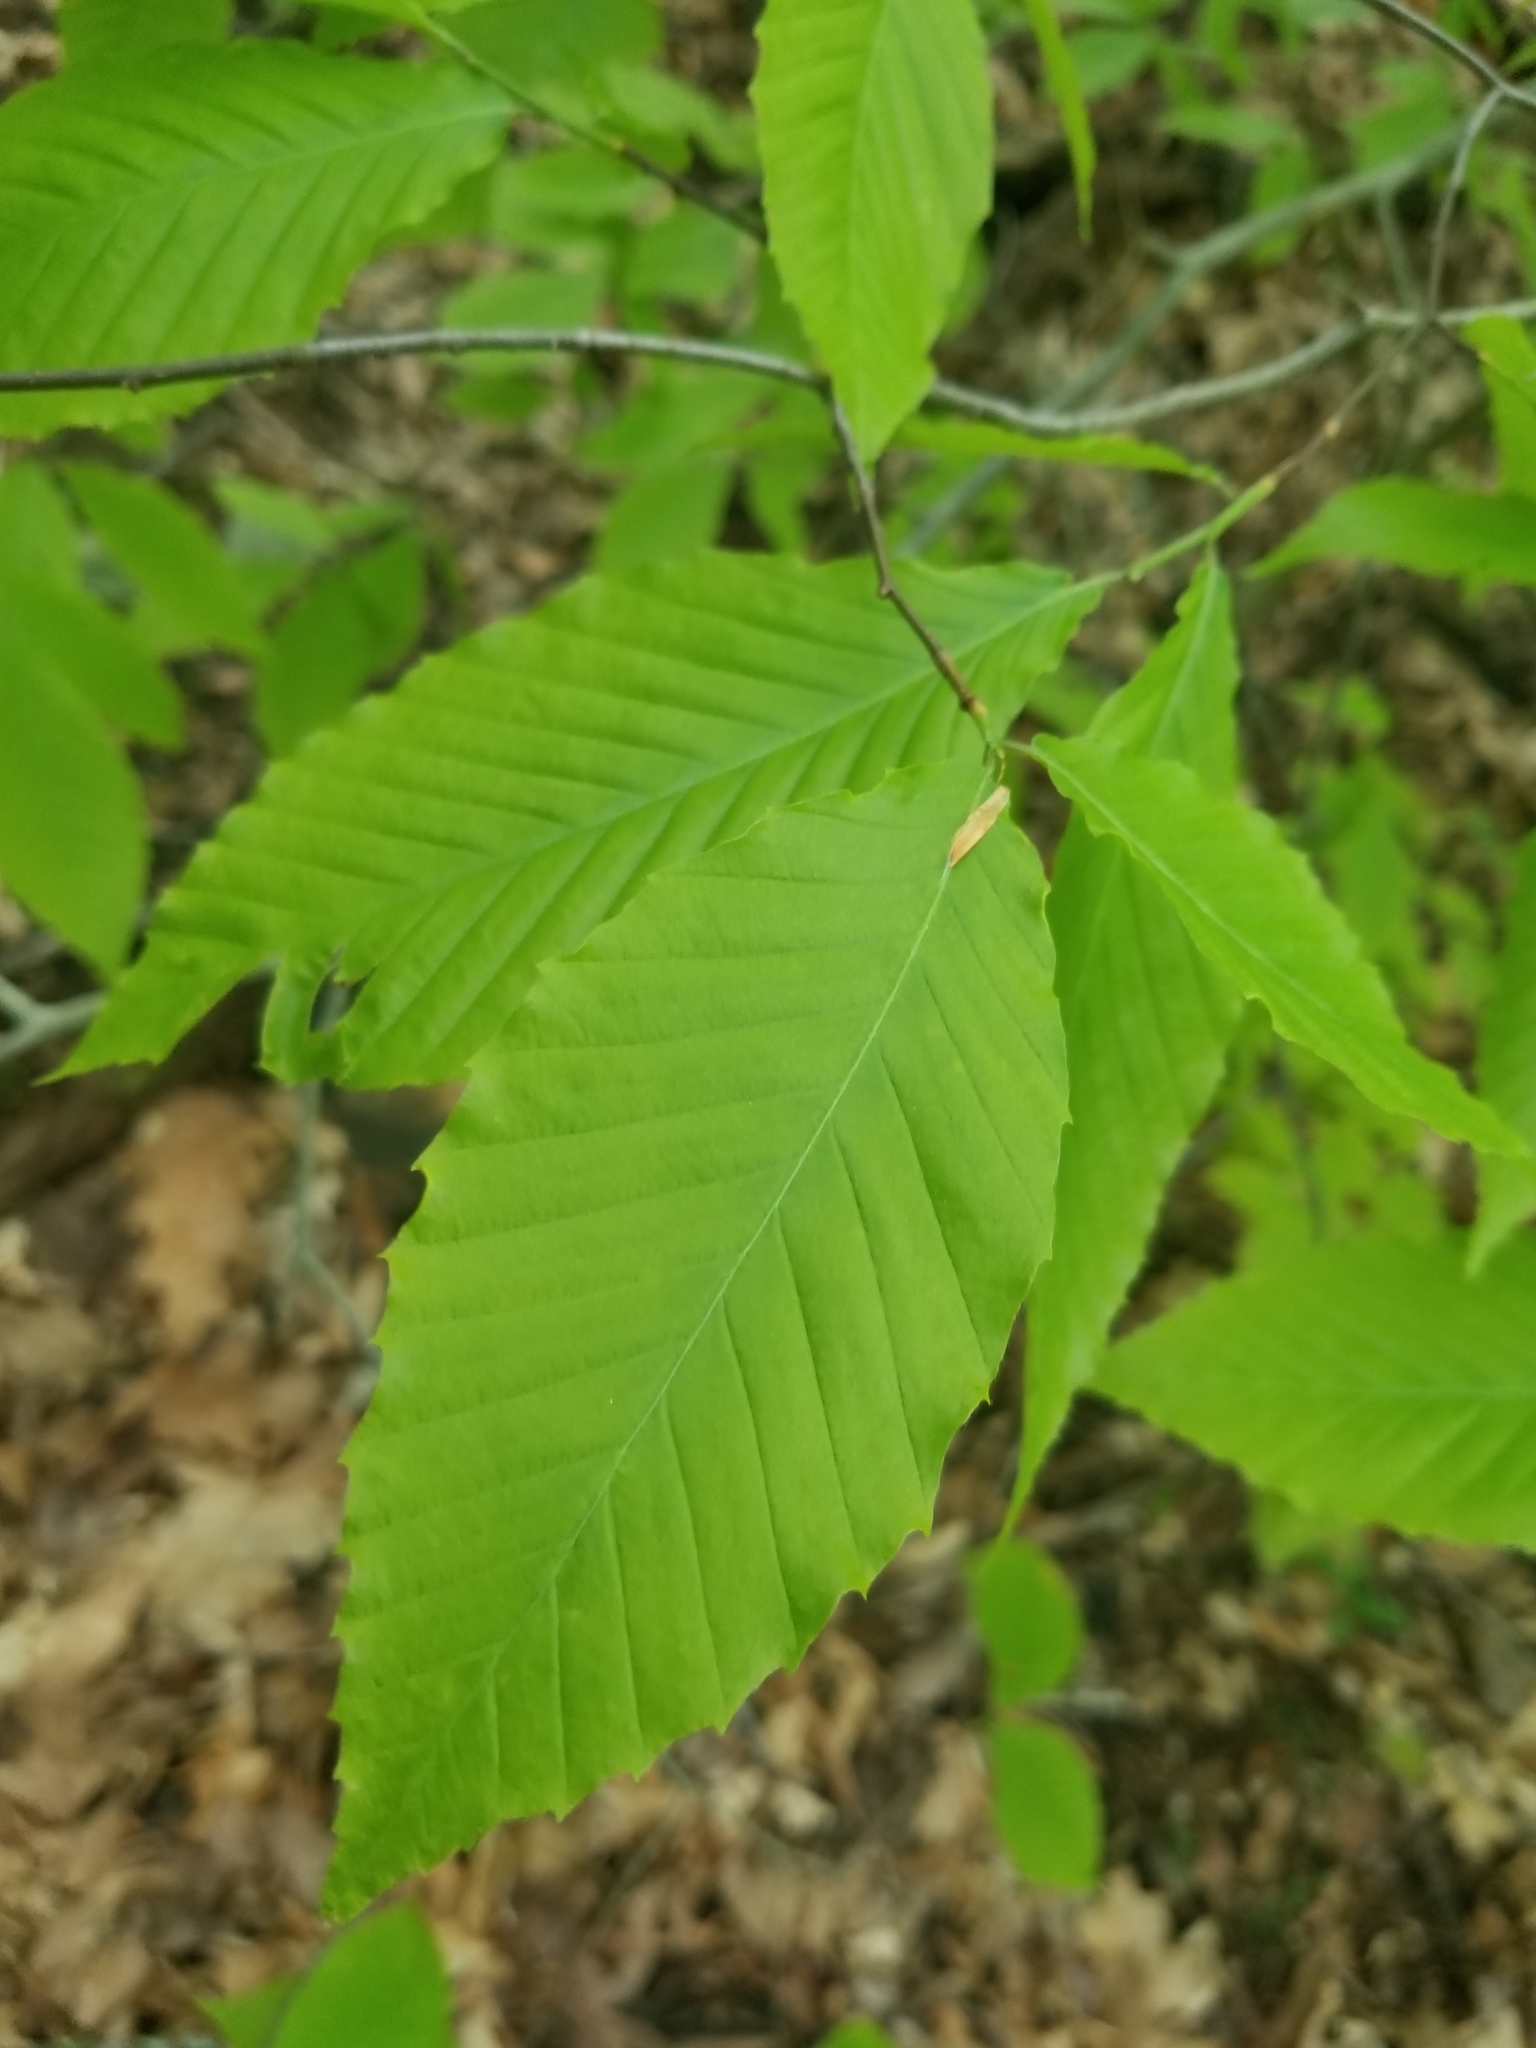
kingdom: Plantae
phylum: Tracheophyta
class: Magnoliopsida
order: Fagales
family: Fagaceae
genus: Fagus
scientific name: Fagus grandifolia
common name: American beech
